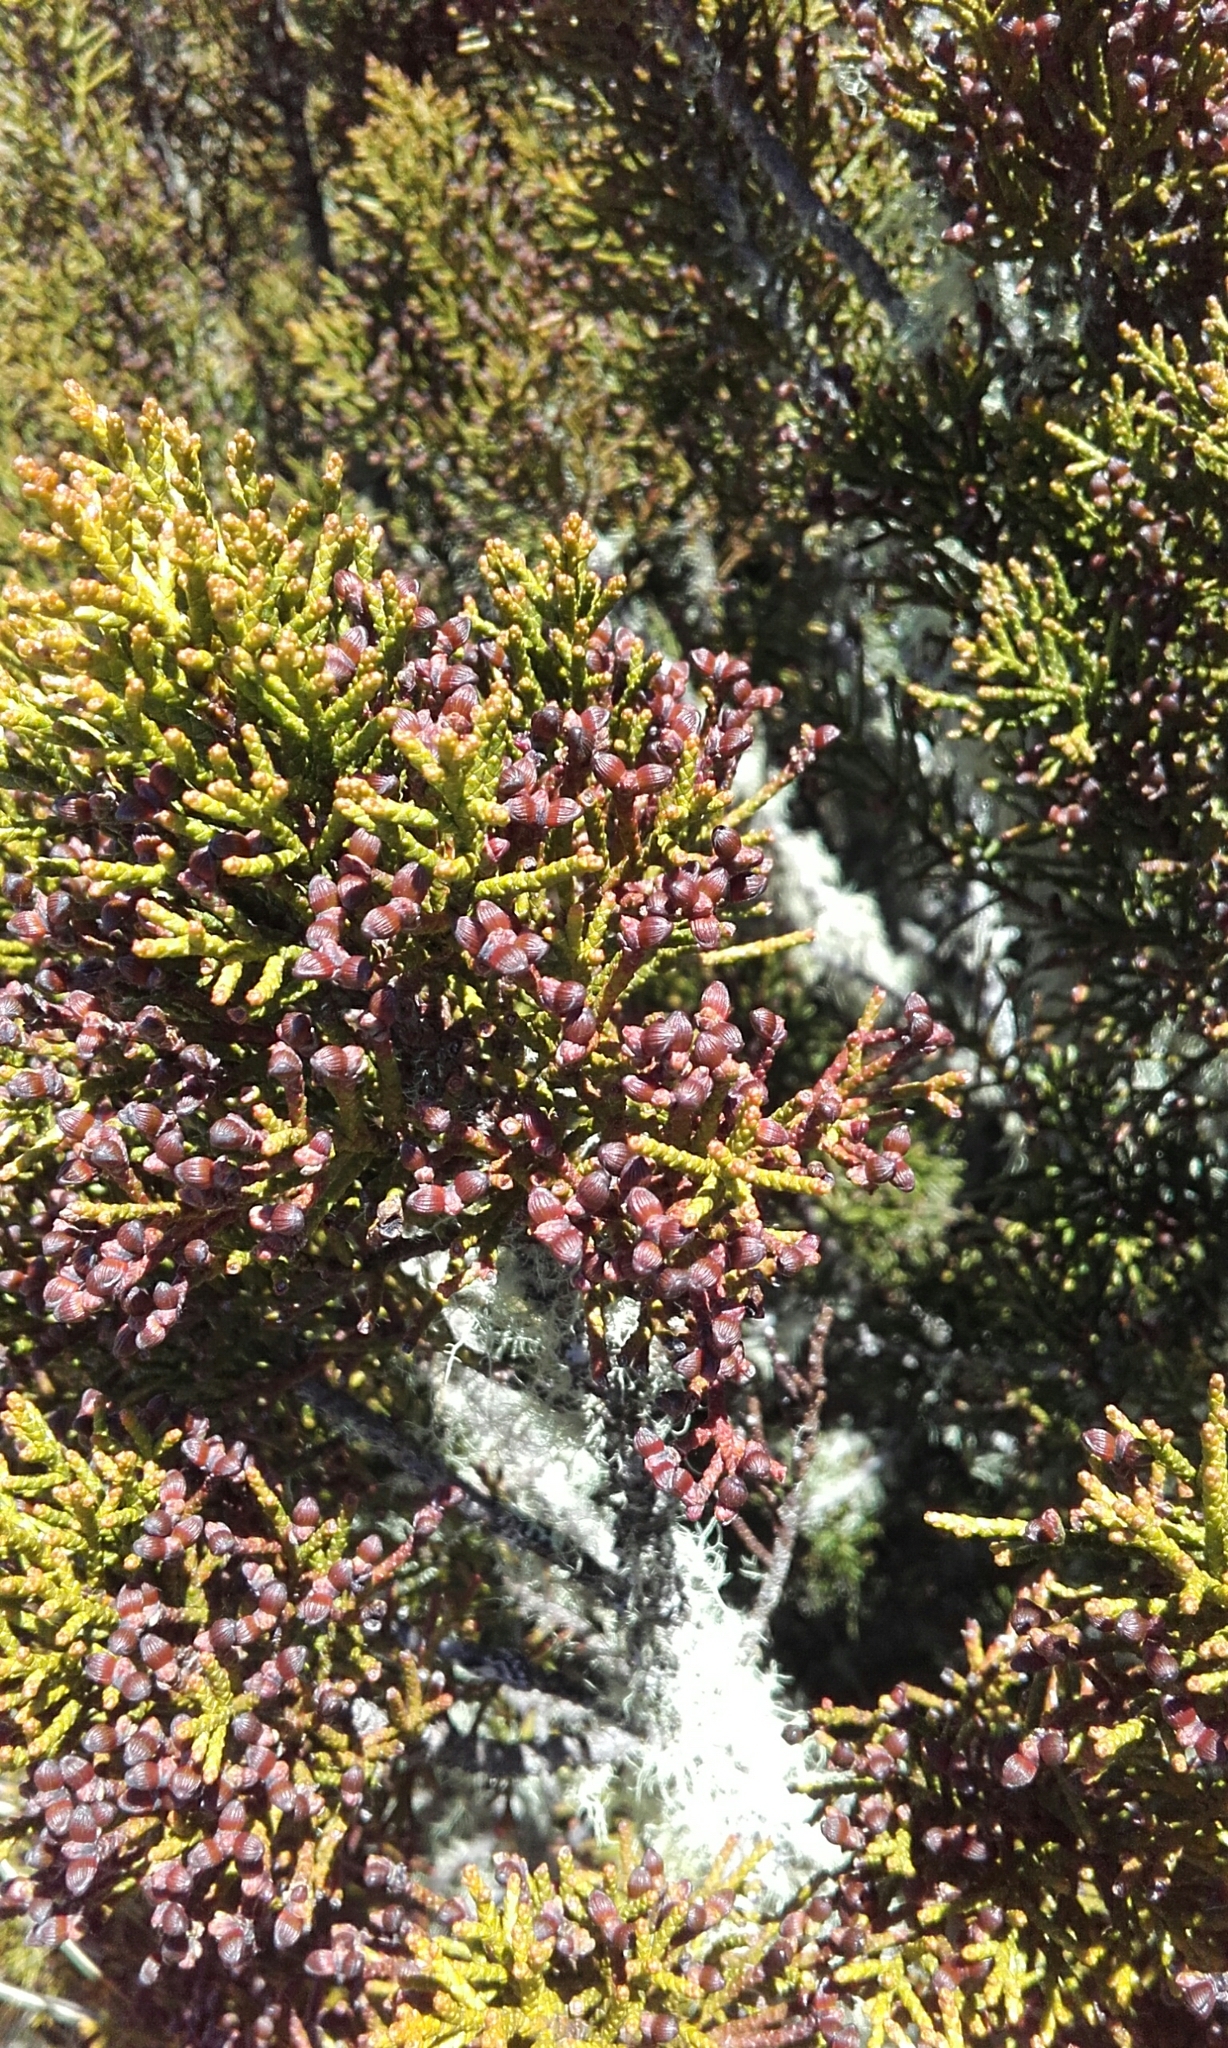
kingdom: Plantae
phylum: Tracheophyta
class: Pinopsida
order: Pinales
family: Podocarpaceae
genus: Halocarpus
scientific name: Halocarpus bidwillii
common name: Bog pine
